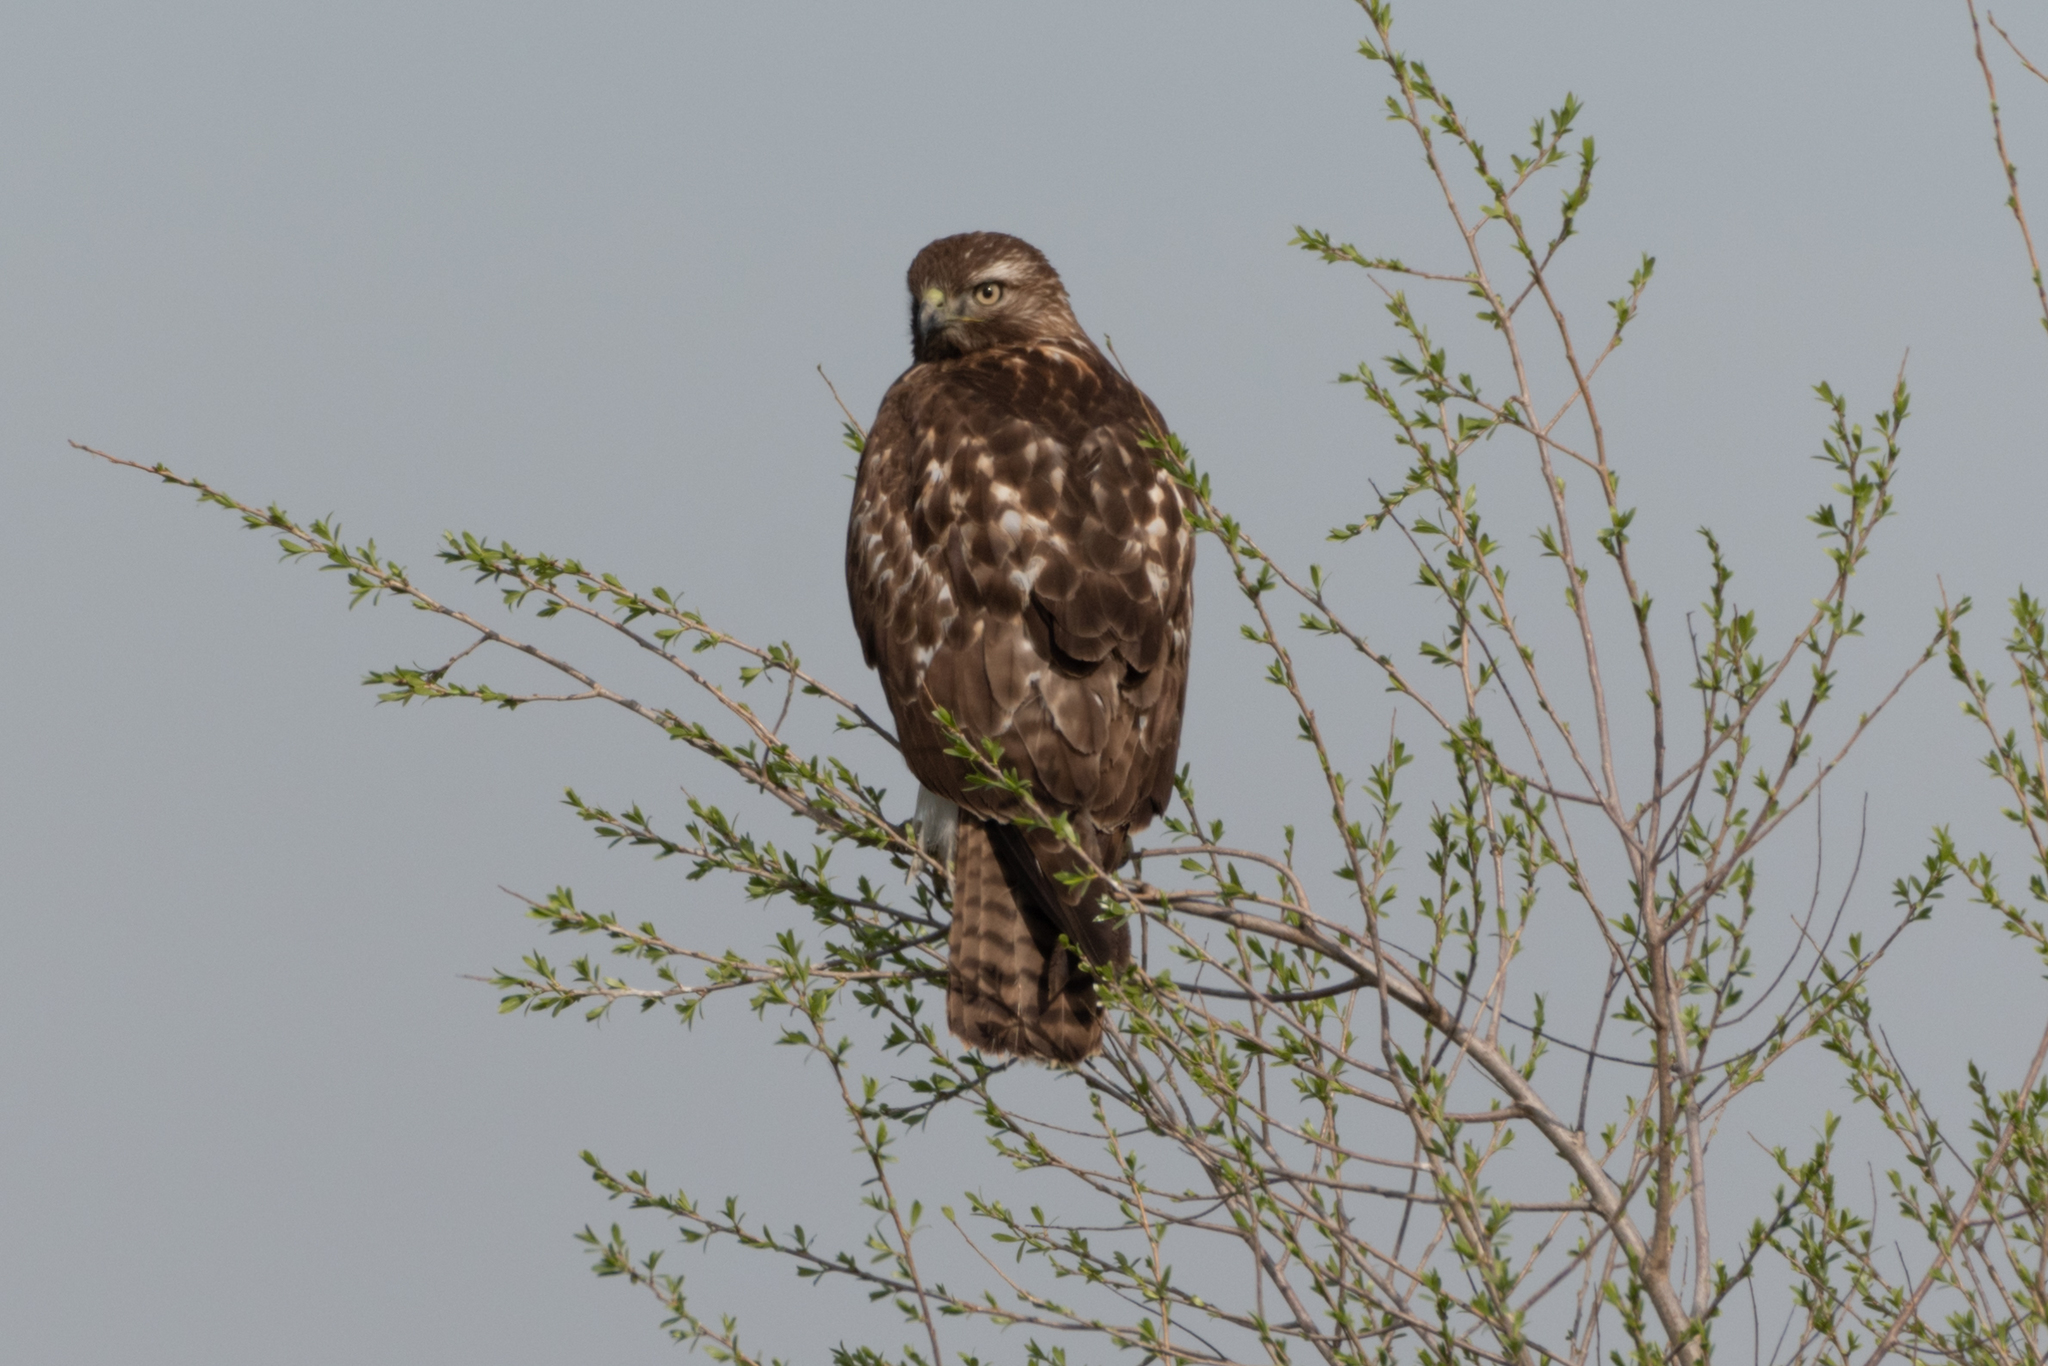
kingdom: Animalia
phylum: Chordata
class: Aves
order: Accipitriformes
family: Accipitridae
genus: Buteo
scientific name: Buteo jamaicensis
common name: Red-tailed hawk
